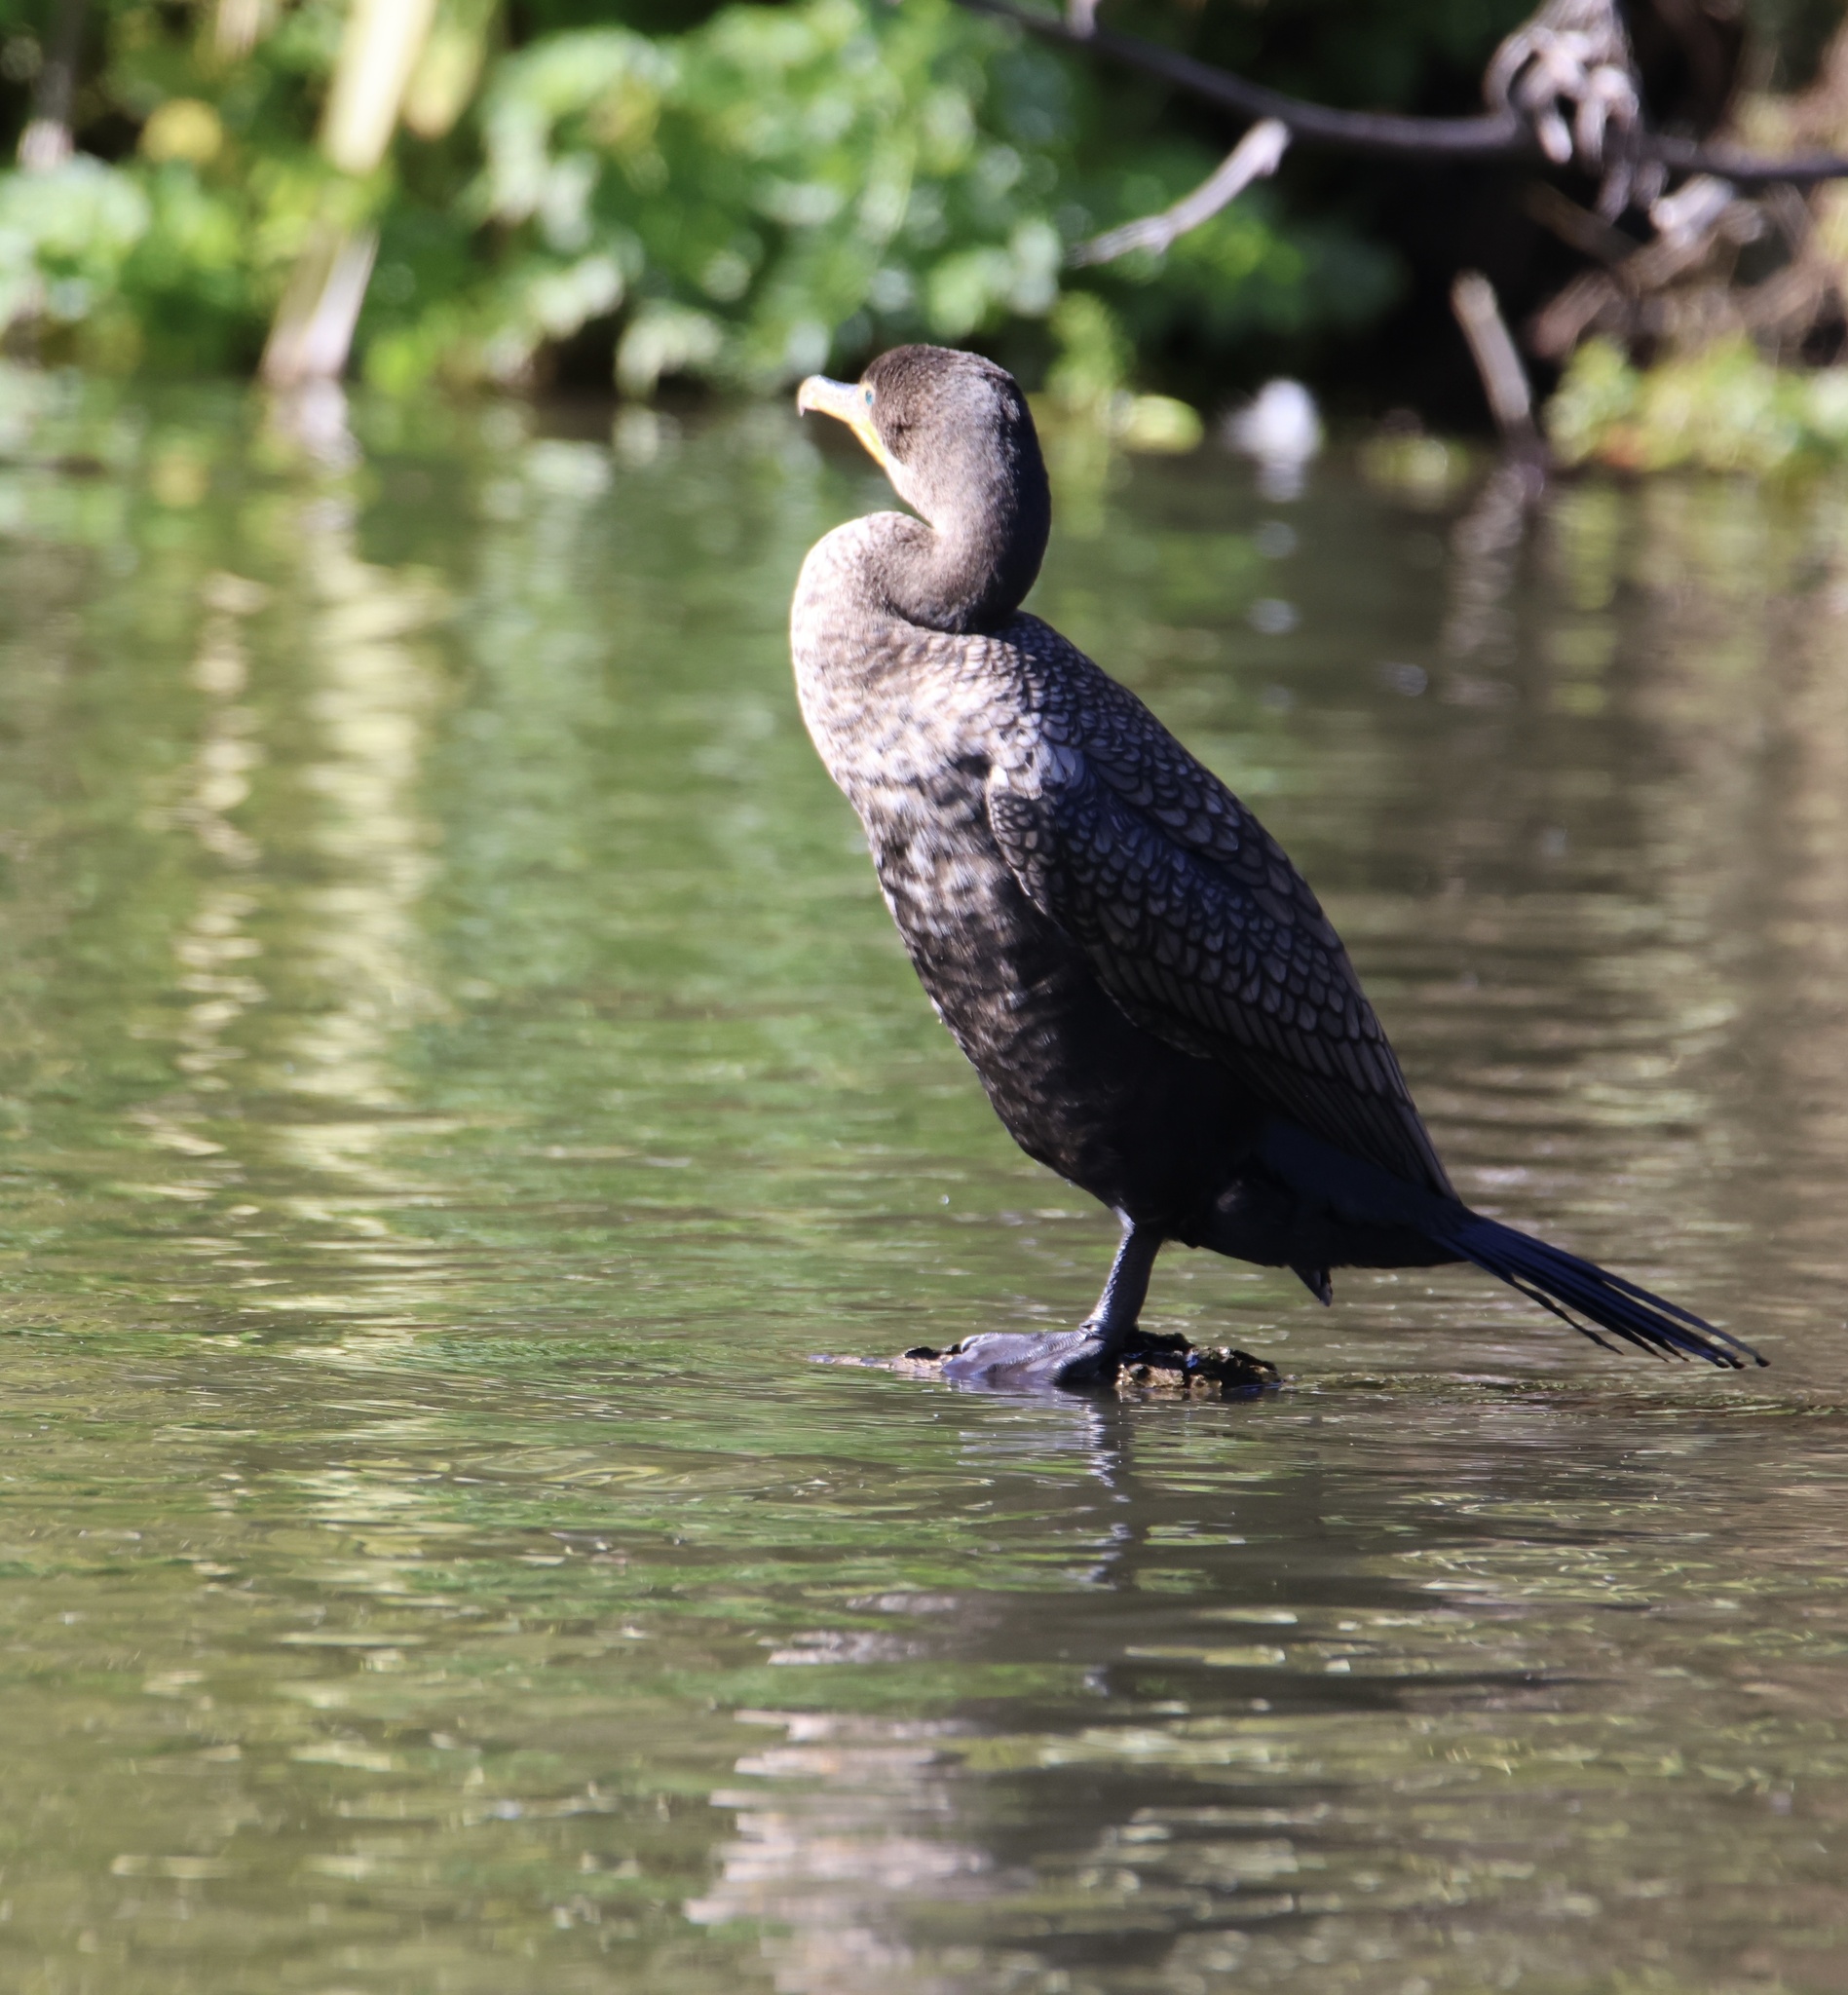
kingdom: Animalia
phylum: Chordata
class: Aves
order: Suliformes
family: Phalacrocoracidae
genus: Phalacrocorax
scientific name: Phalacrocorax auritus
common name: Double-crested cormorant
